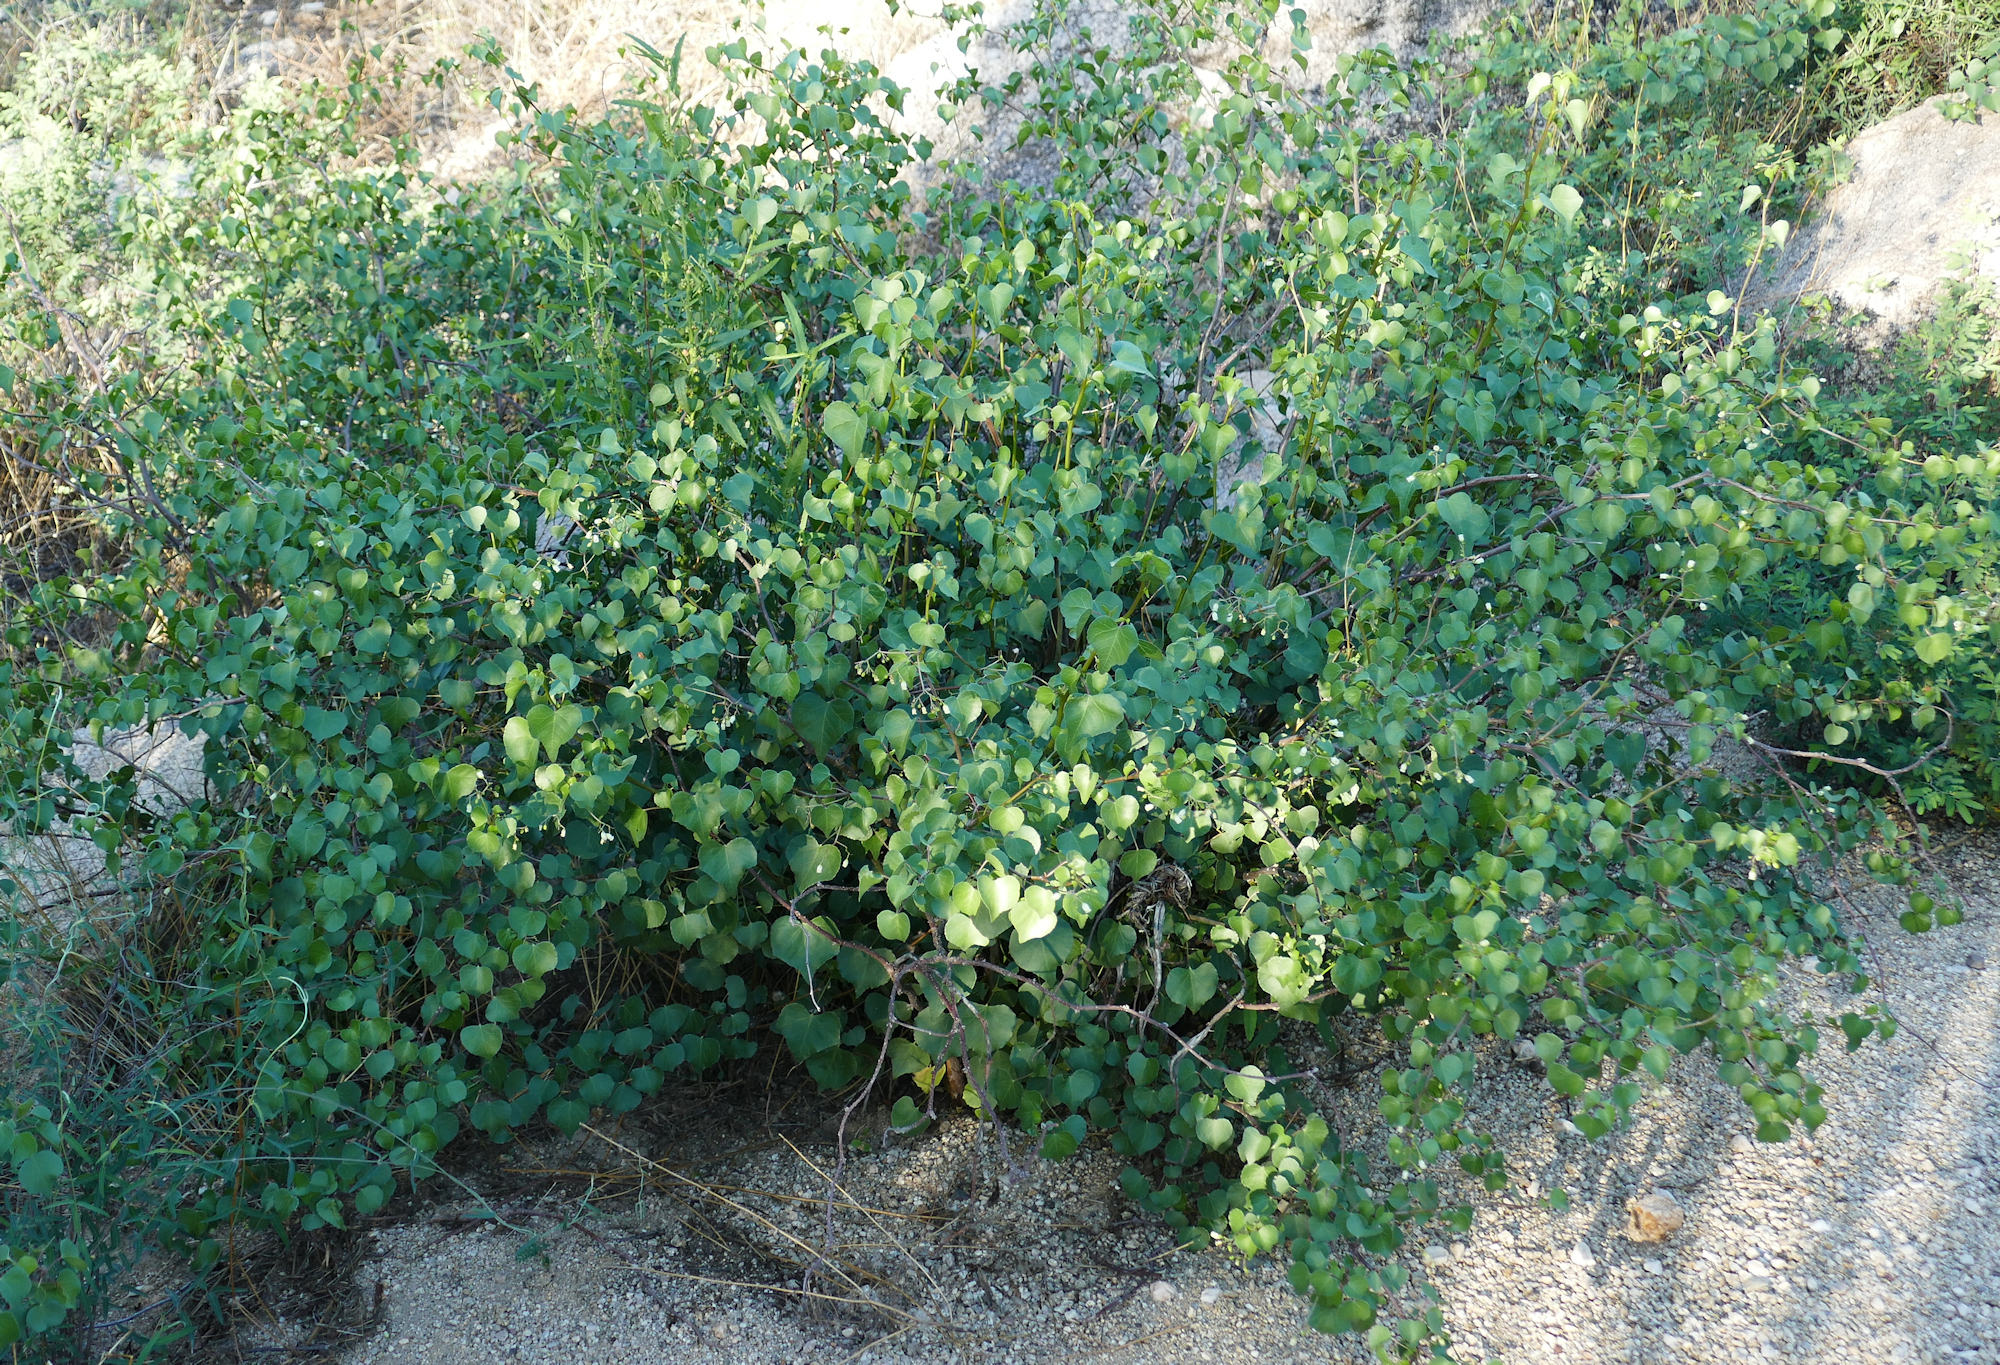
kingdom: Plantae
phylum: Tracheophyta
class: Magnoliopsida
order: Malpighiales
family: Euphorbiaceae
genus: Jatropha
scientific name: Jatropha cardiophylla
